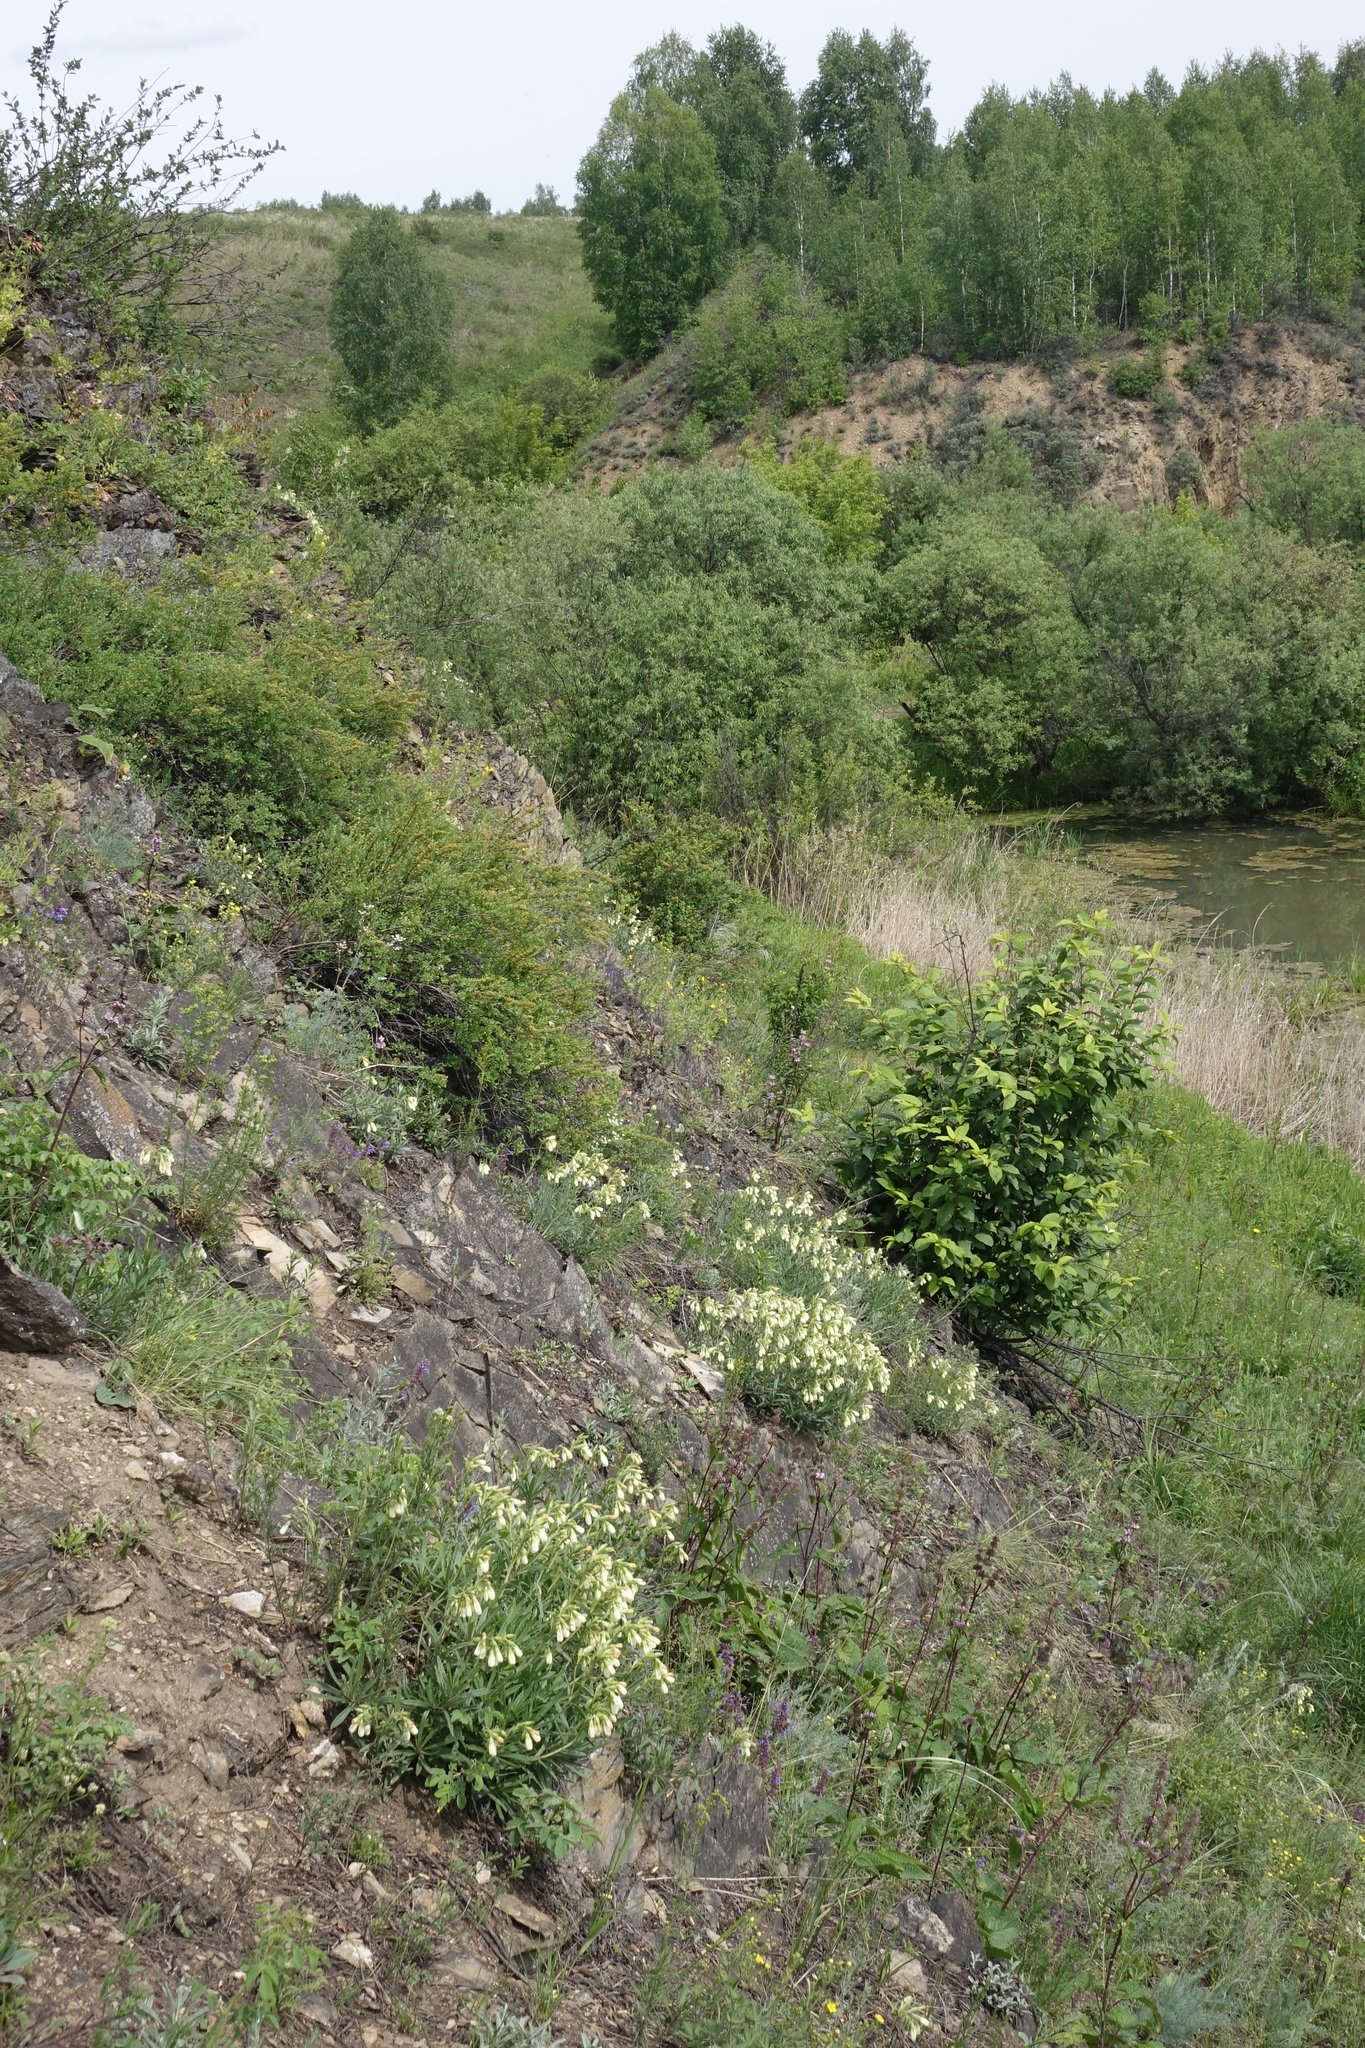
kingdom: Plantae
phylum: Tracheophyta
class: Magnoliopsida
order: Boraginales
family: Boraginaceae
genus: Onosma
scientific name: Onosma simplicissima
